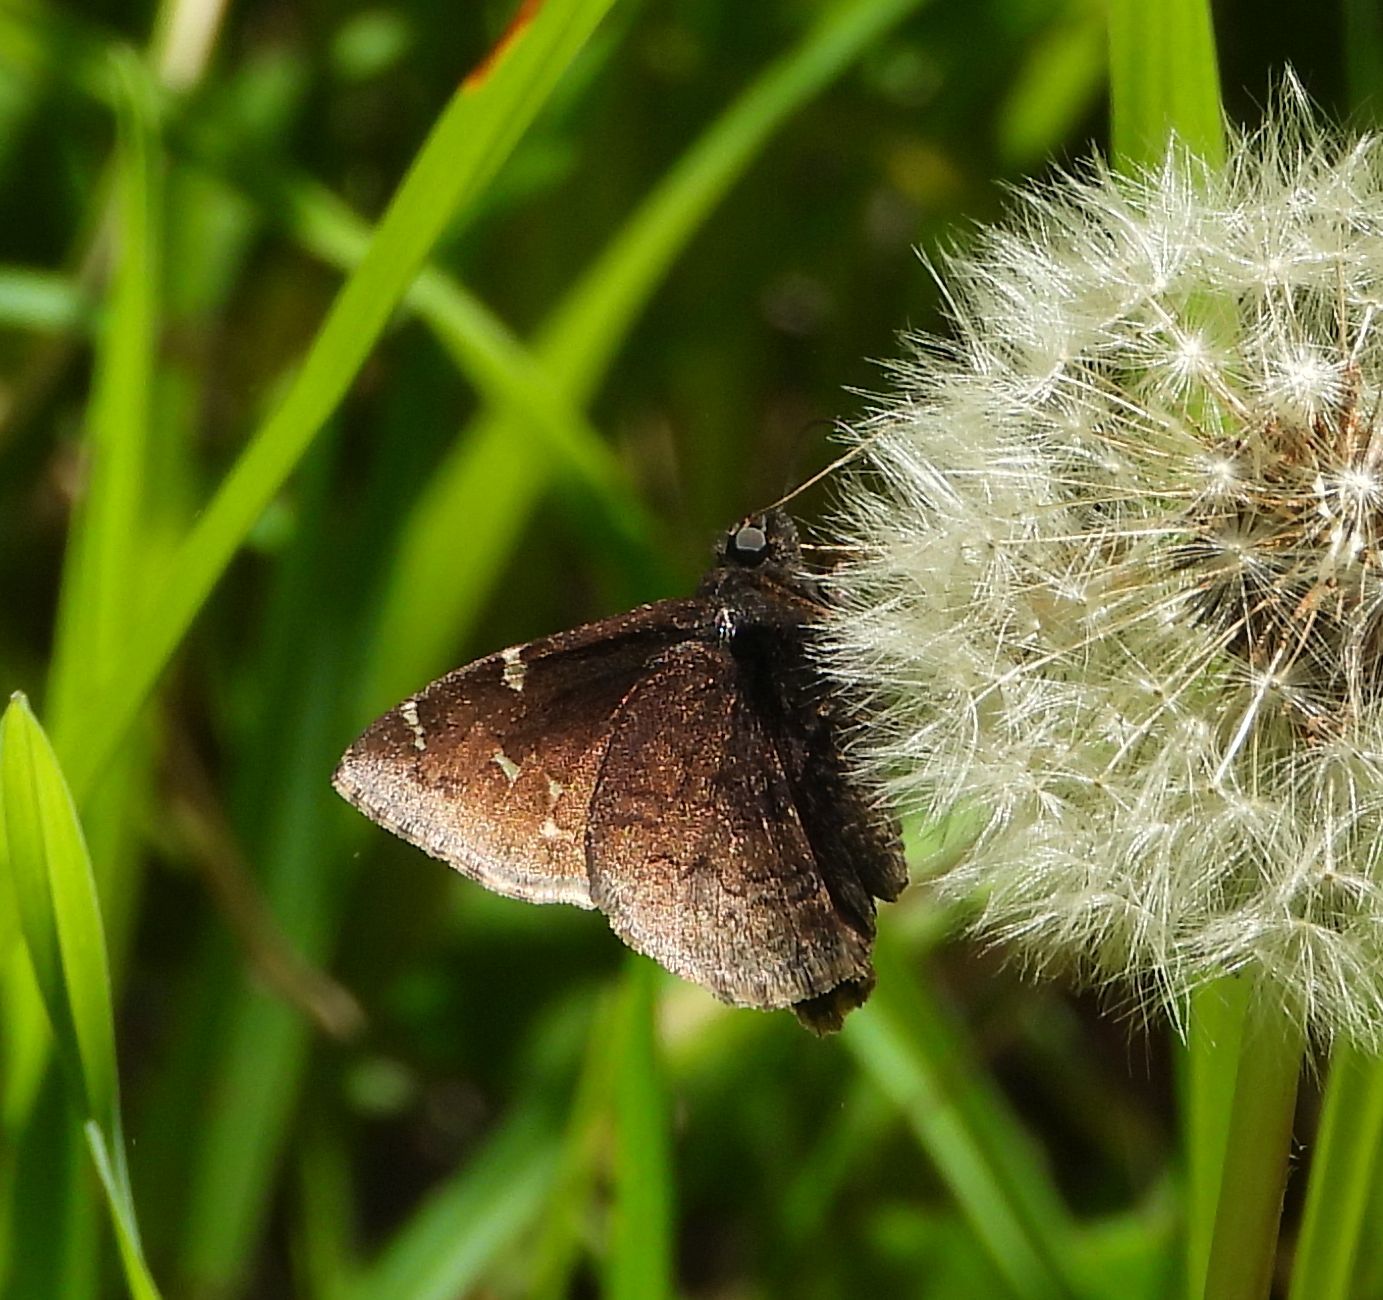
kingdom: Animalia
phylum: Arthropoda
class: Insecta
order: Lepidoptera
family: Hesperiidae
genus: Thorybes
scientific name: Thorybes pylades
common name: Northern cloudywing
